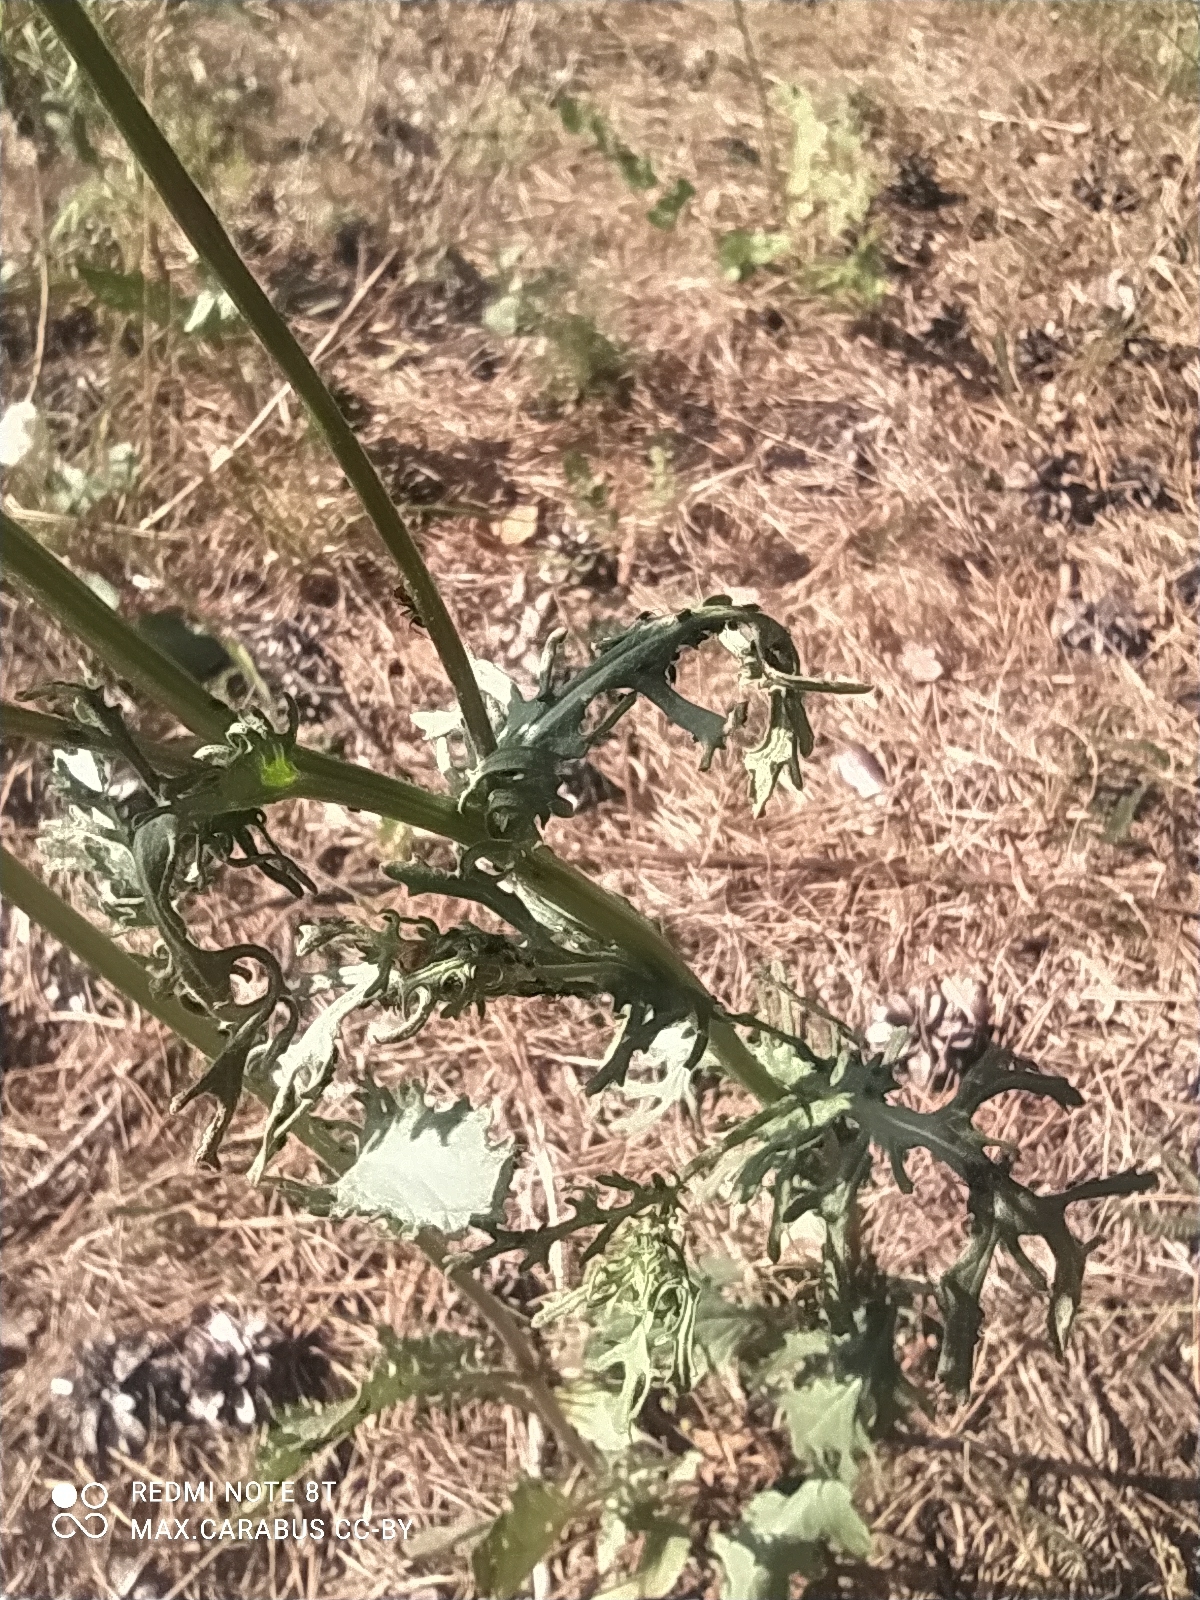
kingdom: Plantae
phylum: Tracheophyta
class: Magnoliopsida
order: Asterales
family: Asteraceae
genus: Jacobaea
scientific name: Jacobaea vulgaris
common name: Stinking willie
